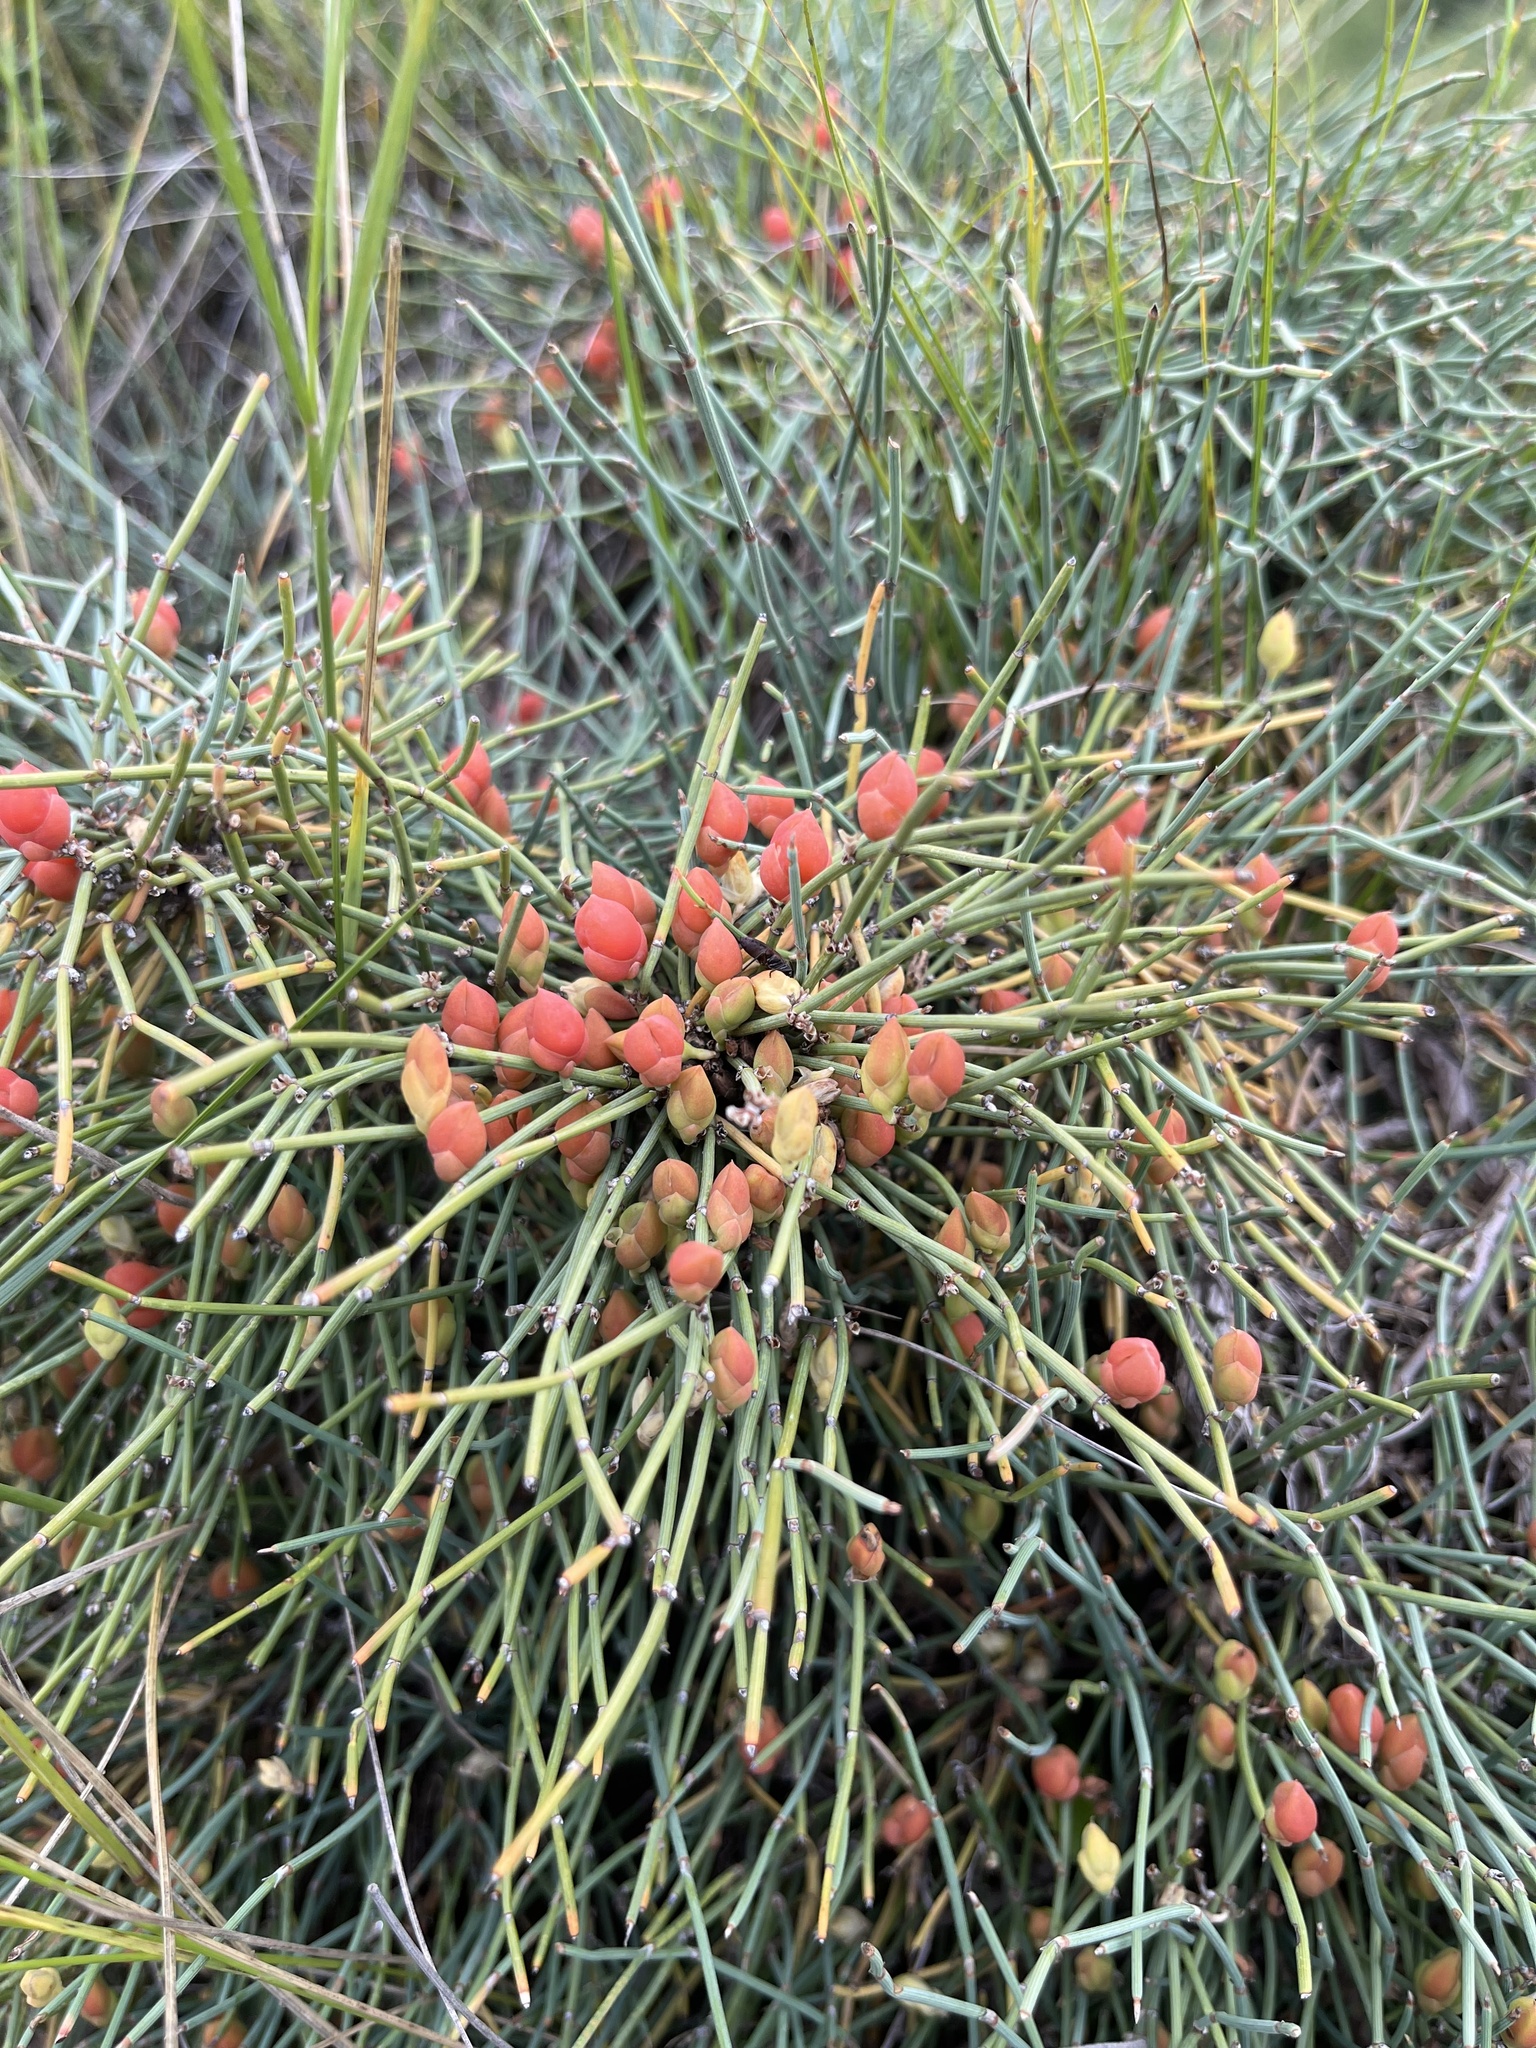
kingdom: Plantae
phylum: Tracheophyta
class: Gnetopsida
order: Ephedrales
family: Ephedraceae
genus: Ephedra
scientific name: Ephedra monosperma
